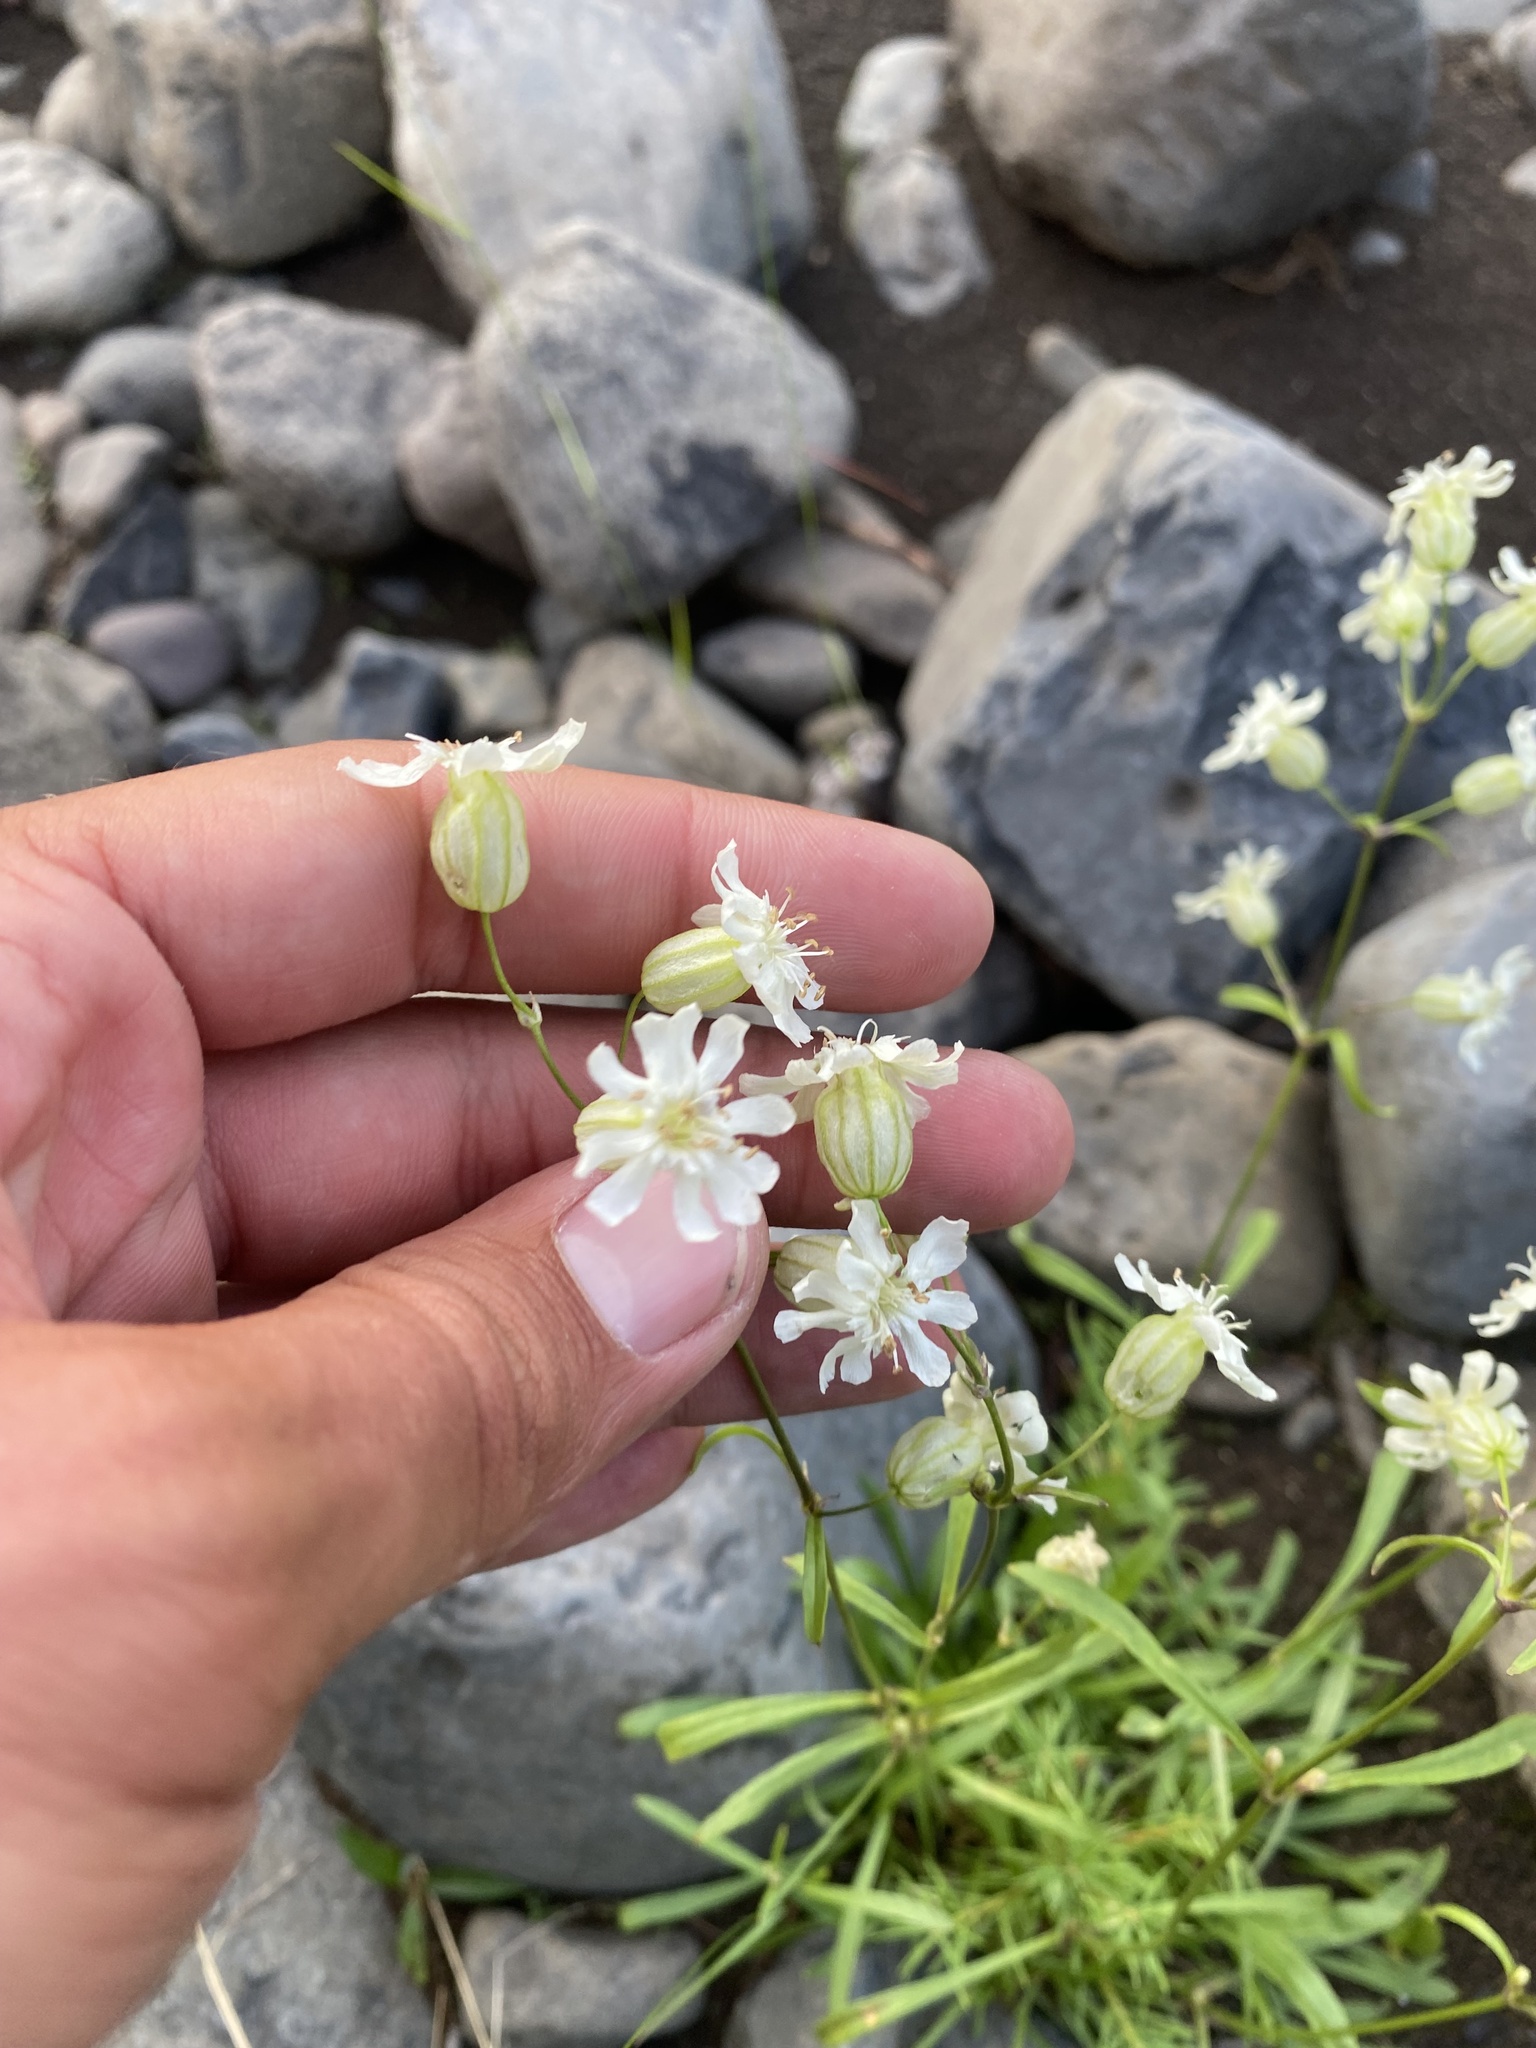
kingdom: Plantae
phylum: Tracheophyta
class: Magnoliopsida
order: Caryophyllales
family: Caryophyllaceae
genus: Silene
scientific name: Silene chamarensis
